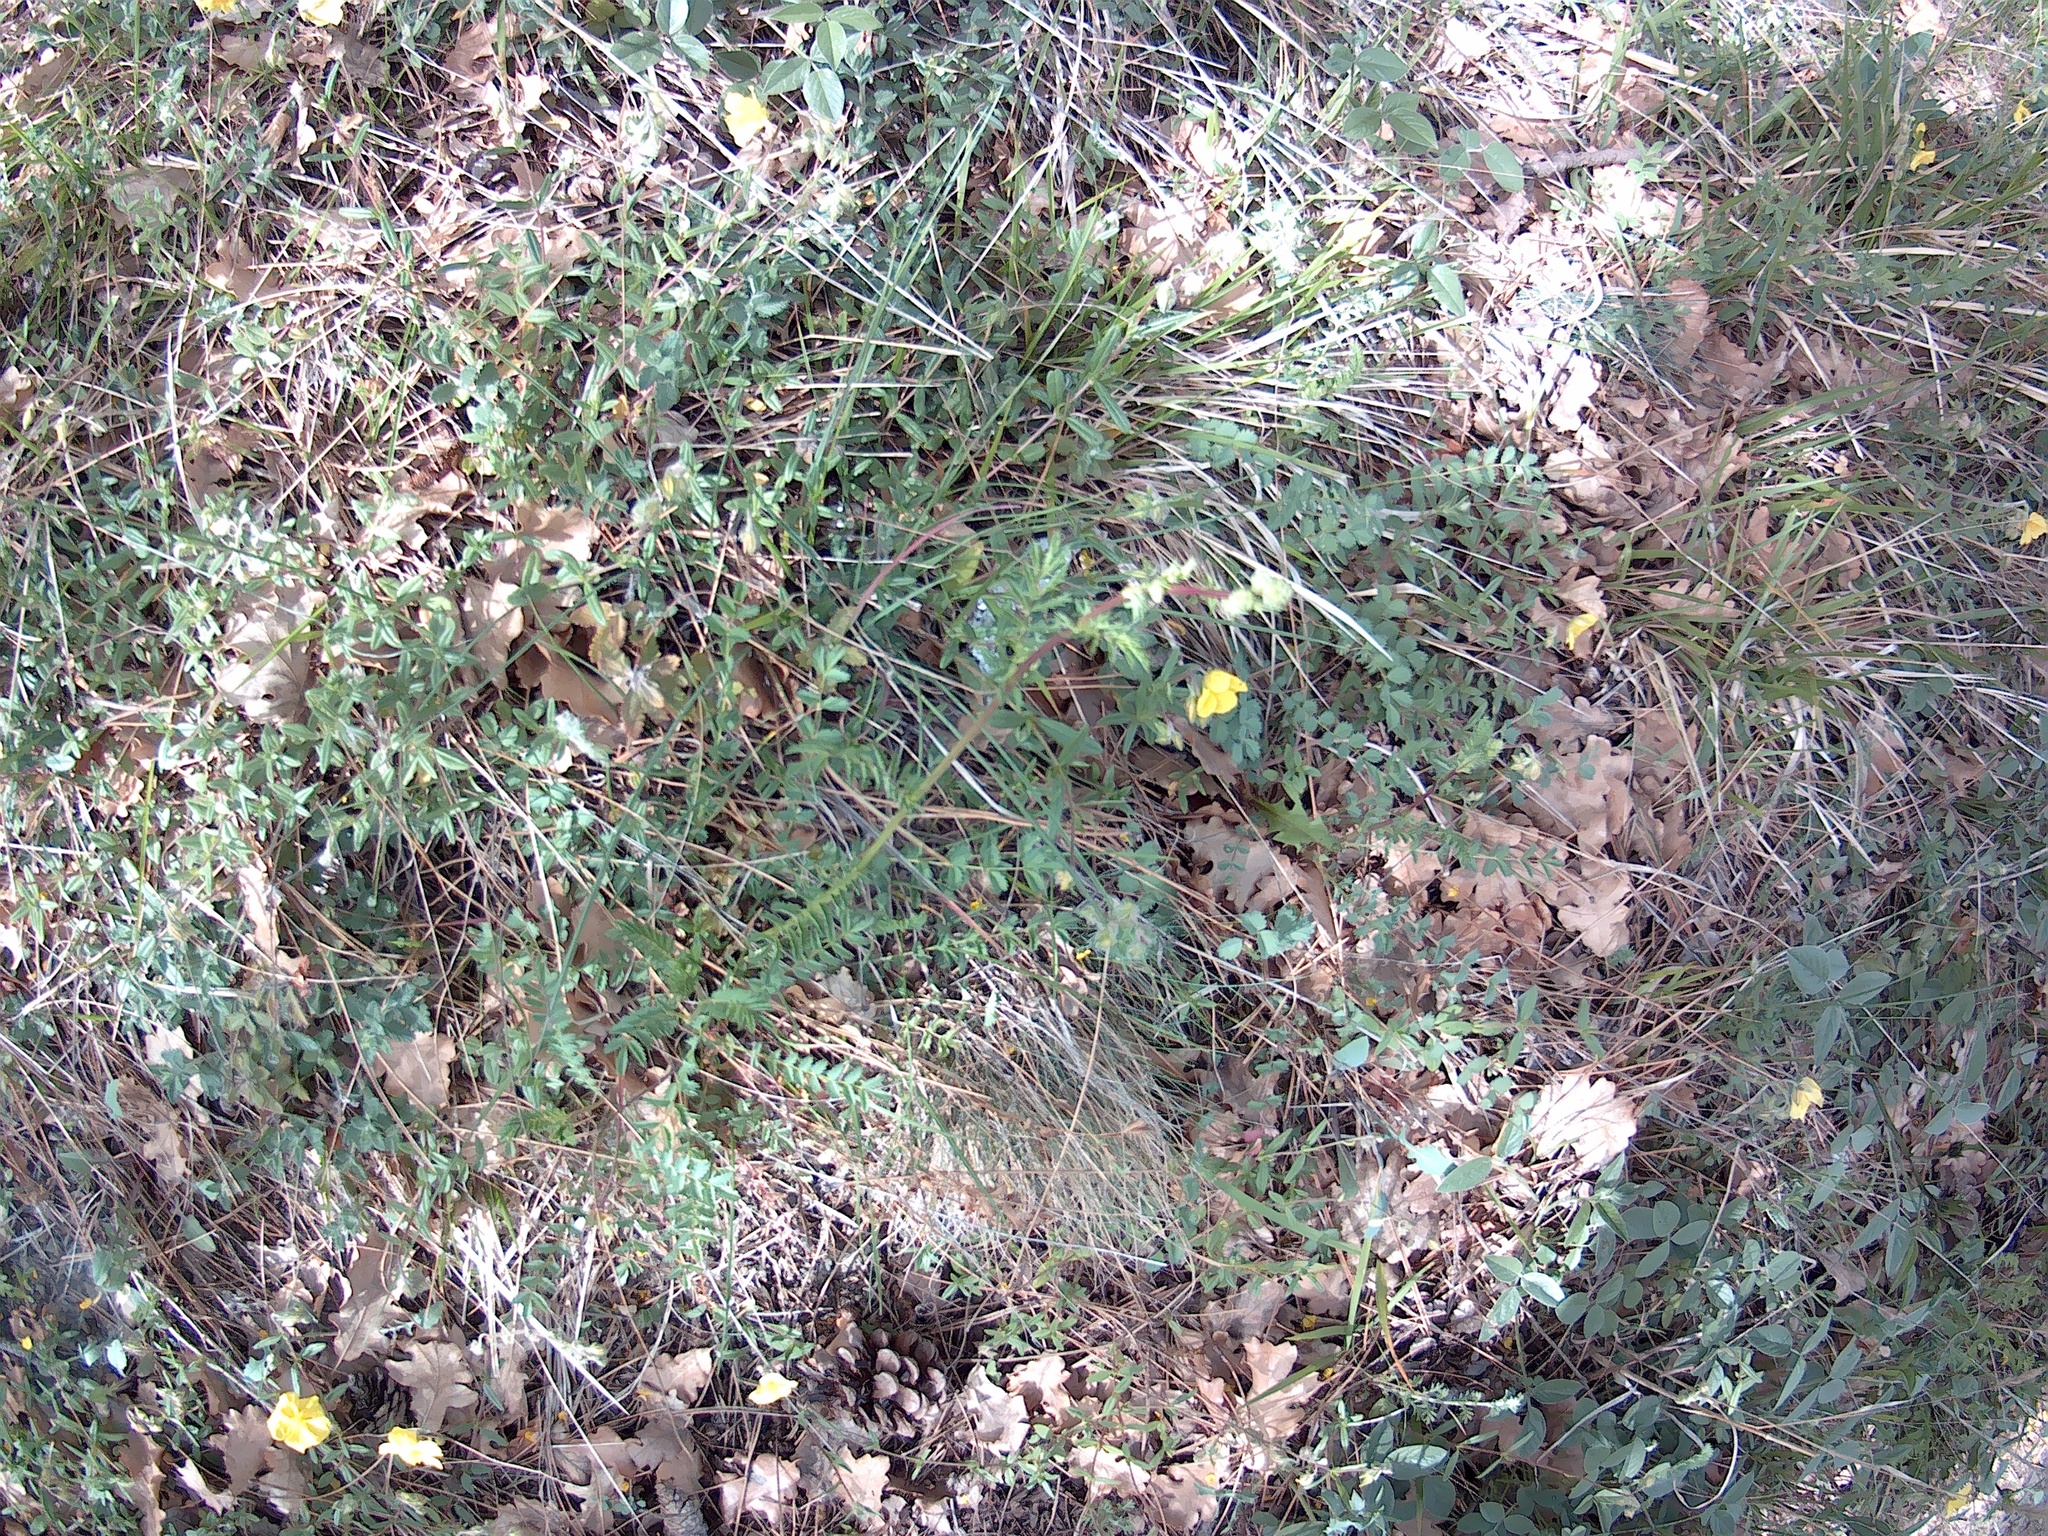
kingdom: Plantae
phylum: Tracheophyta
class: Magnoliopsida
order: Rosales
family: Rosaceae
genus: Poterium
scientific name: Poterium sanguisorba
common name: Salad burnet
